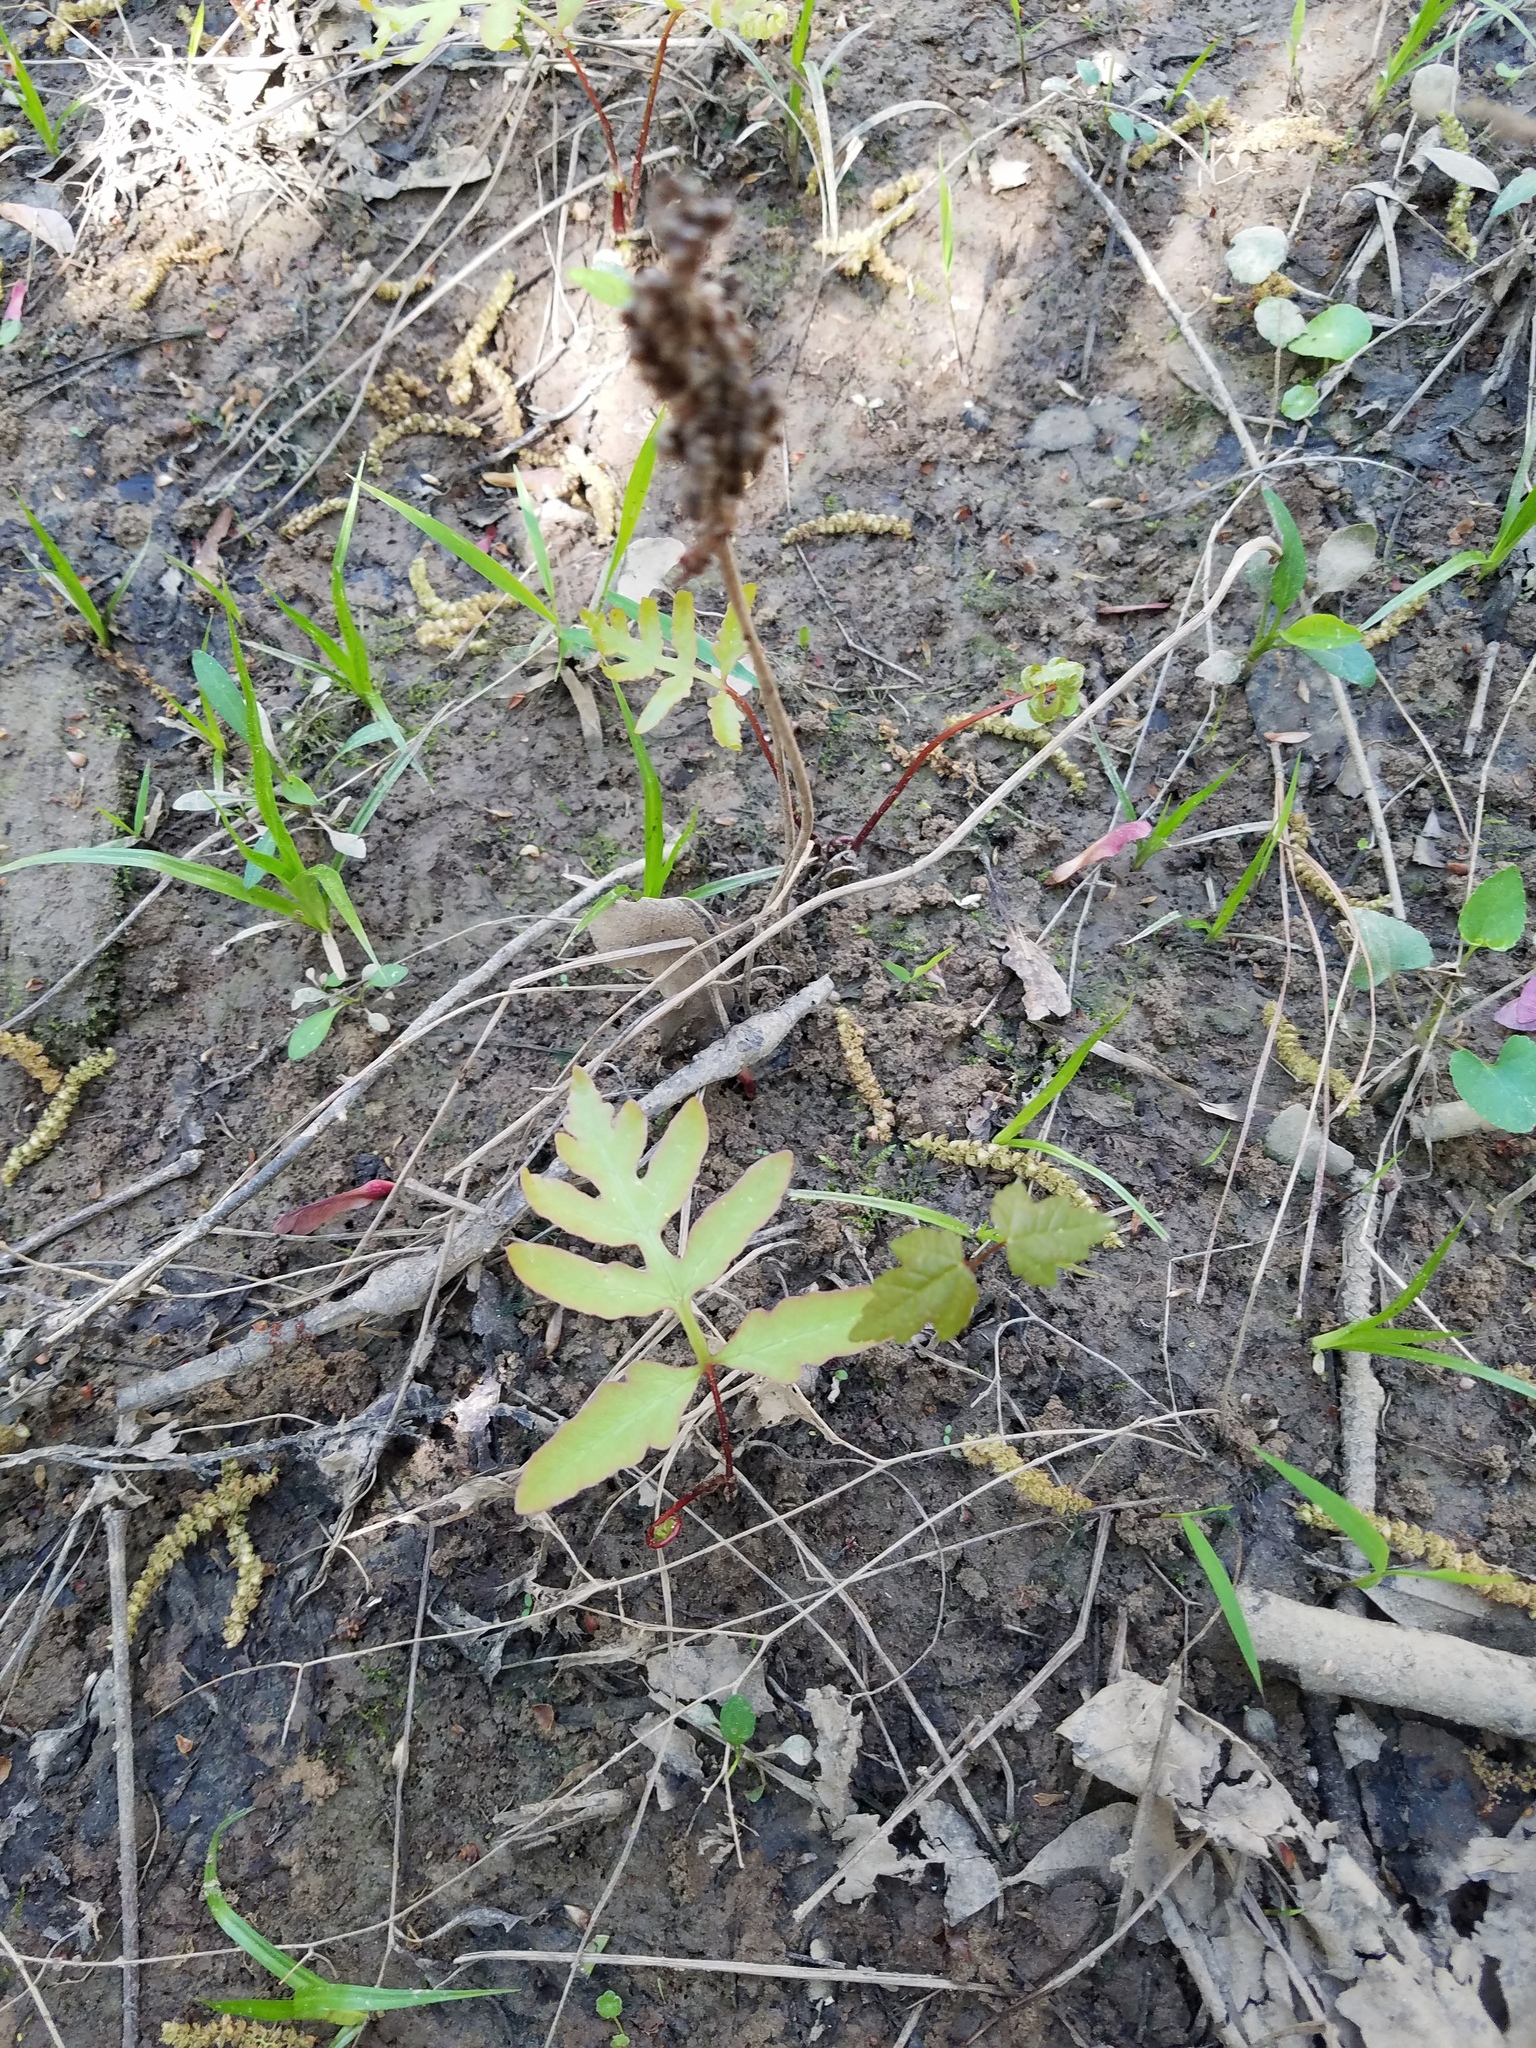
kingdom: Plantae
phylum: Tracheophyta
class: Polypodiopsida
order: Polypodiales
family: Onocleaceae
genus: Onoclea
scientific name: Onoclea sensibilis
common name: Sensitive fern
